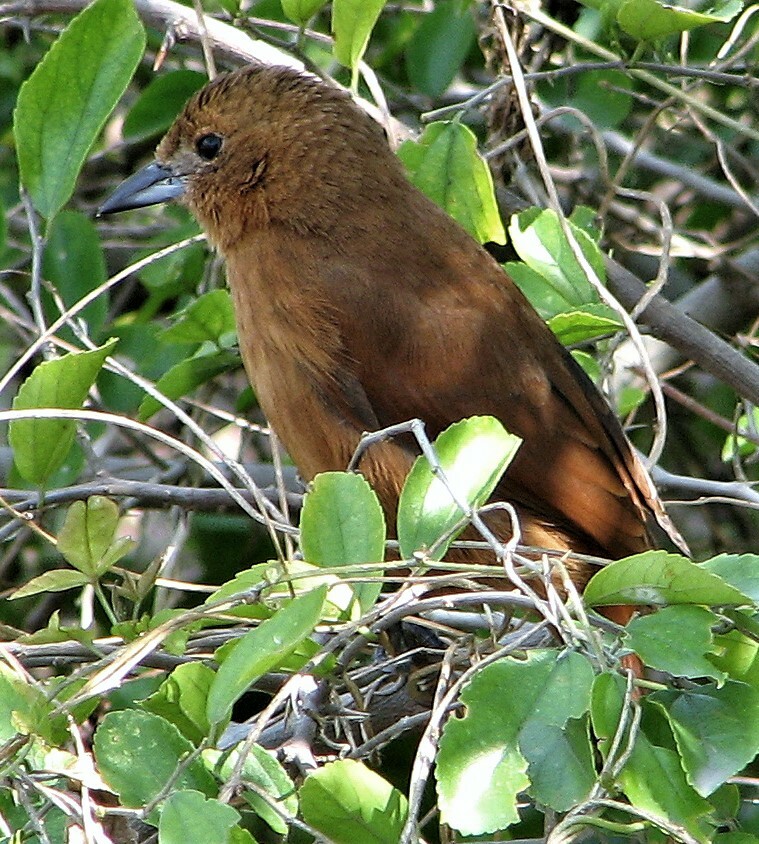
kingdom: Animalia
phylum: Chordata
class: Aves
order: Passeriformes
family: Thraupidae
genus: Tachyphonus
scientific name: Tachyphonus rufus
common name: White-lined tanager
